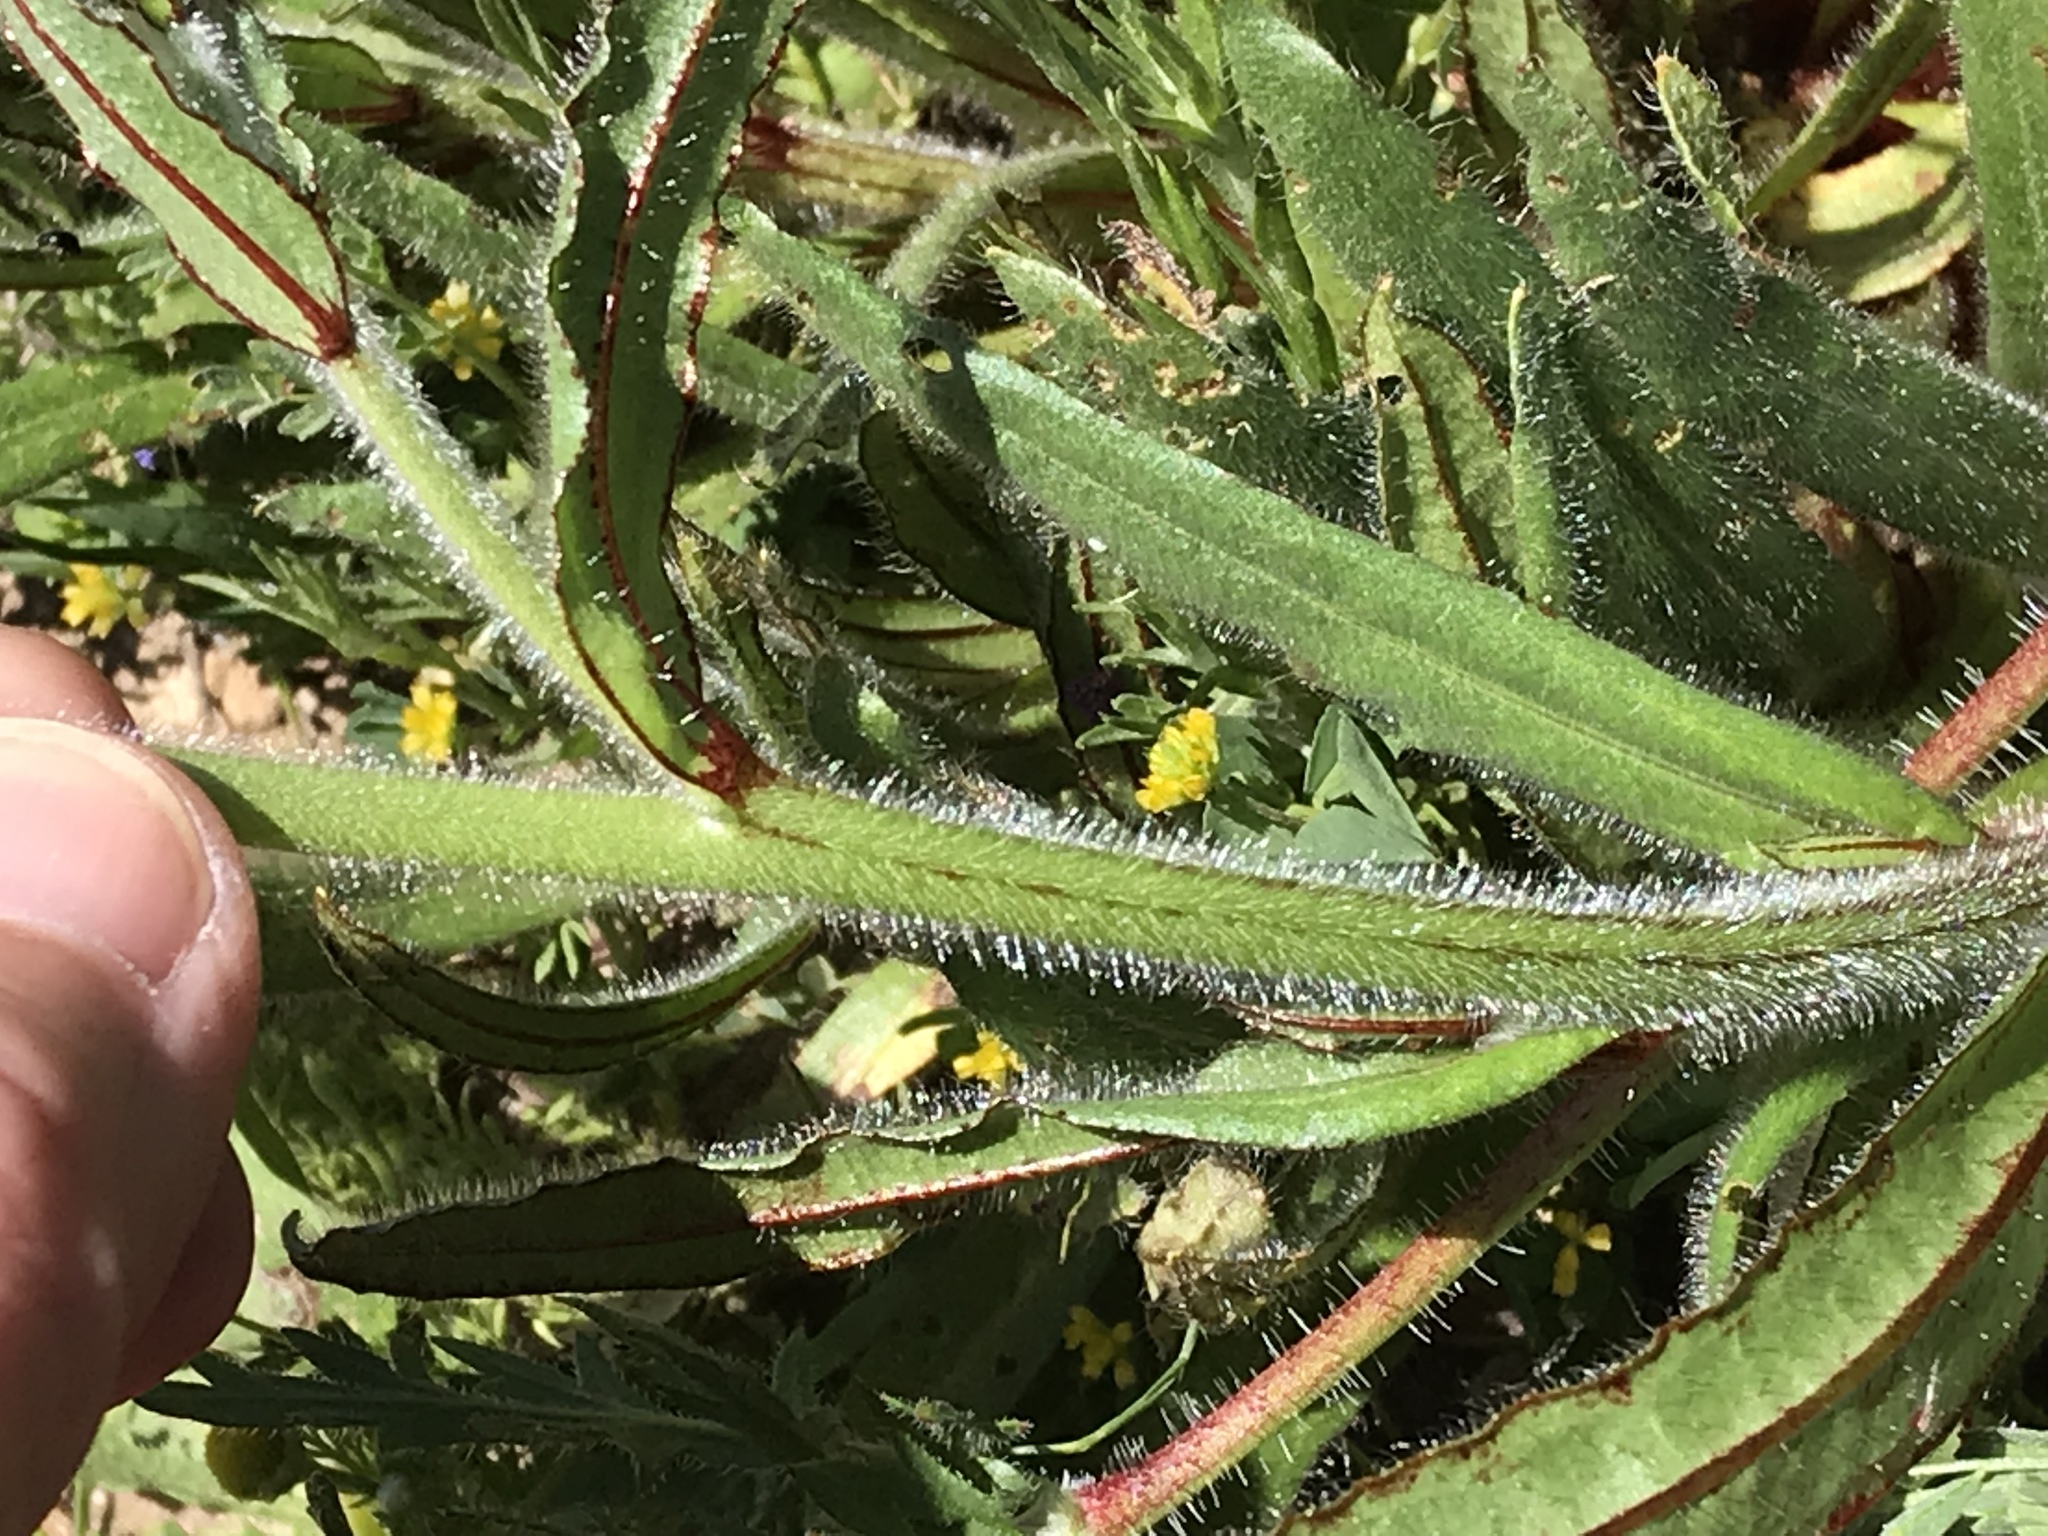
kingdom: Plantae
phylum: Tracheophyta
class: Magnoliopsida
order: Boraginales
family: Boraginaceae
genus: Plagiobothrys
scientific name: Plagiobothrys nothofulvus
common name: Popcorn-flower
